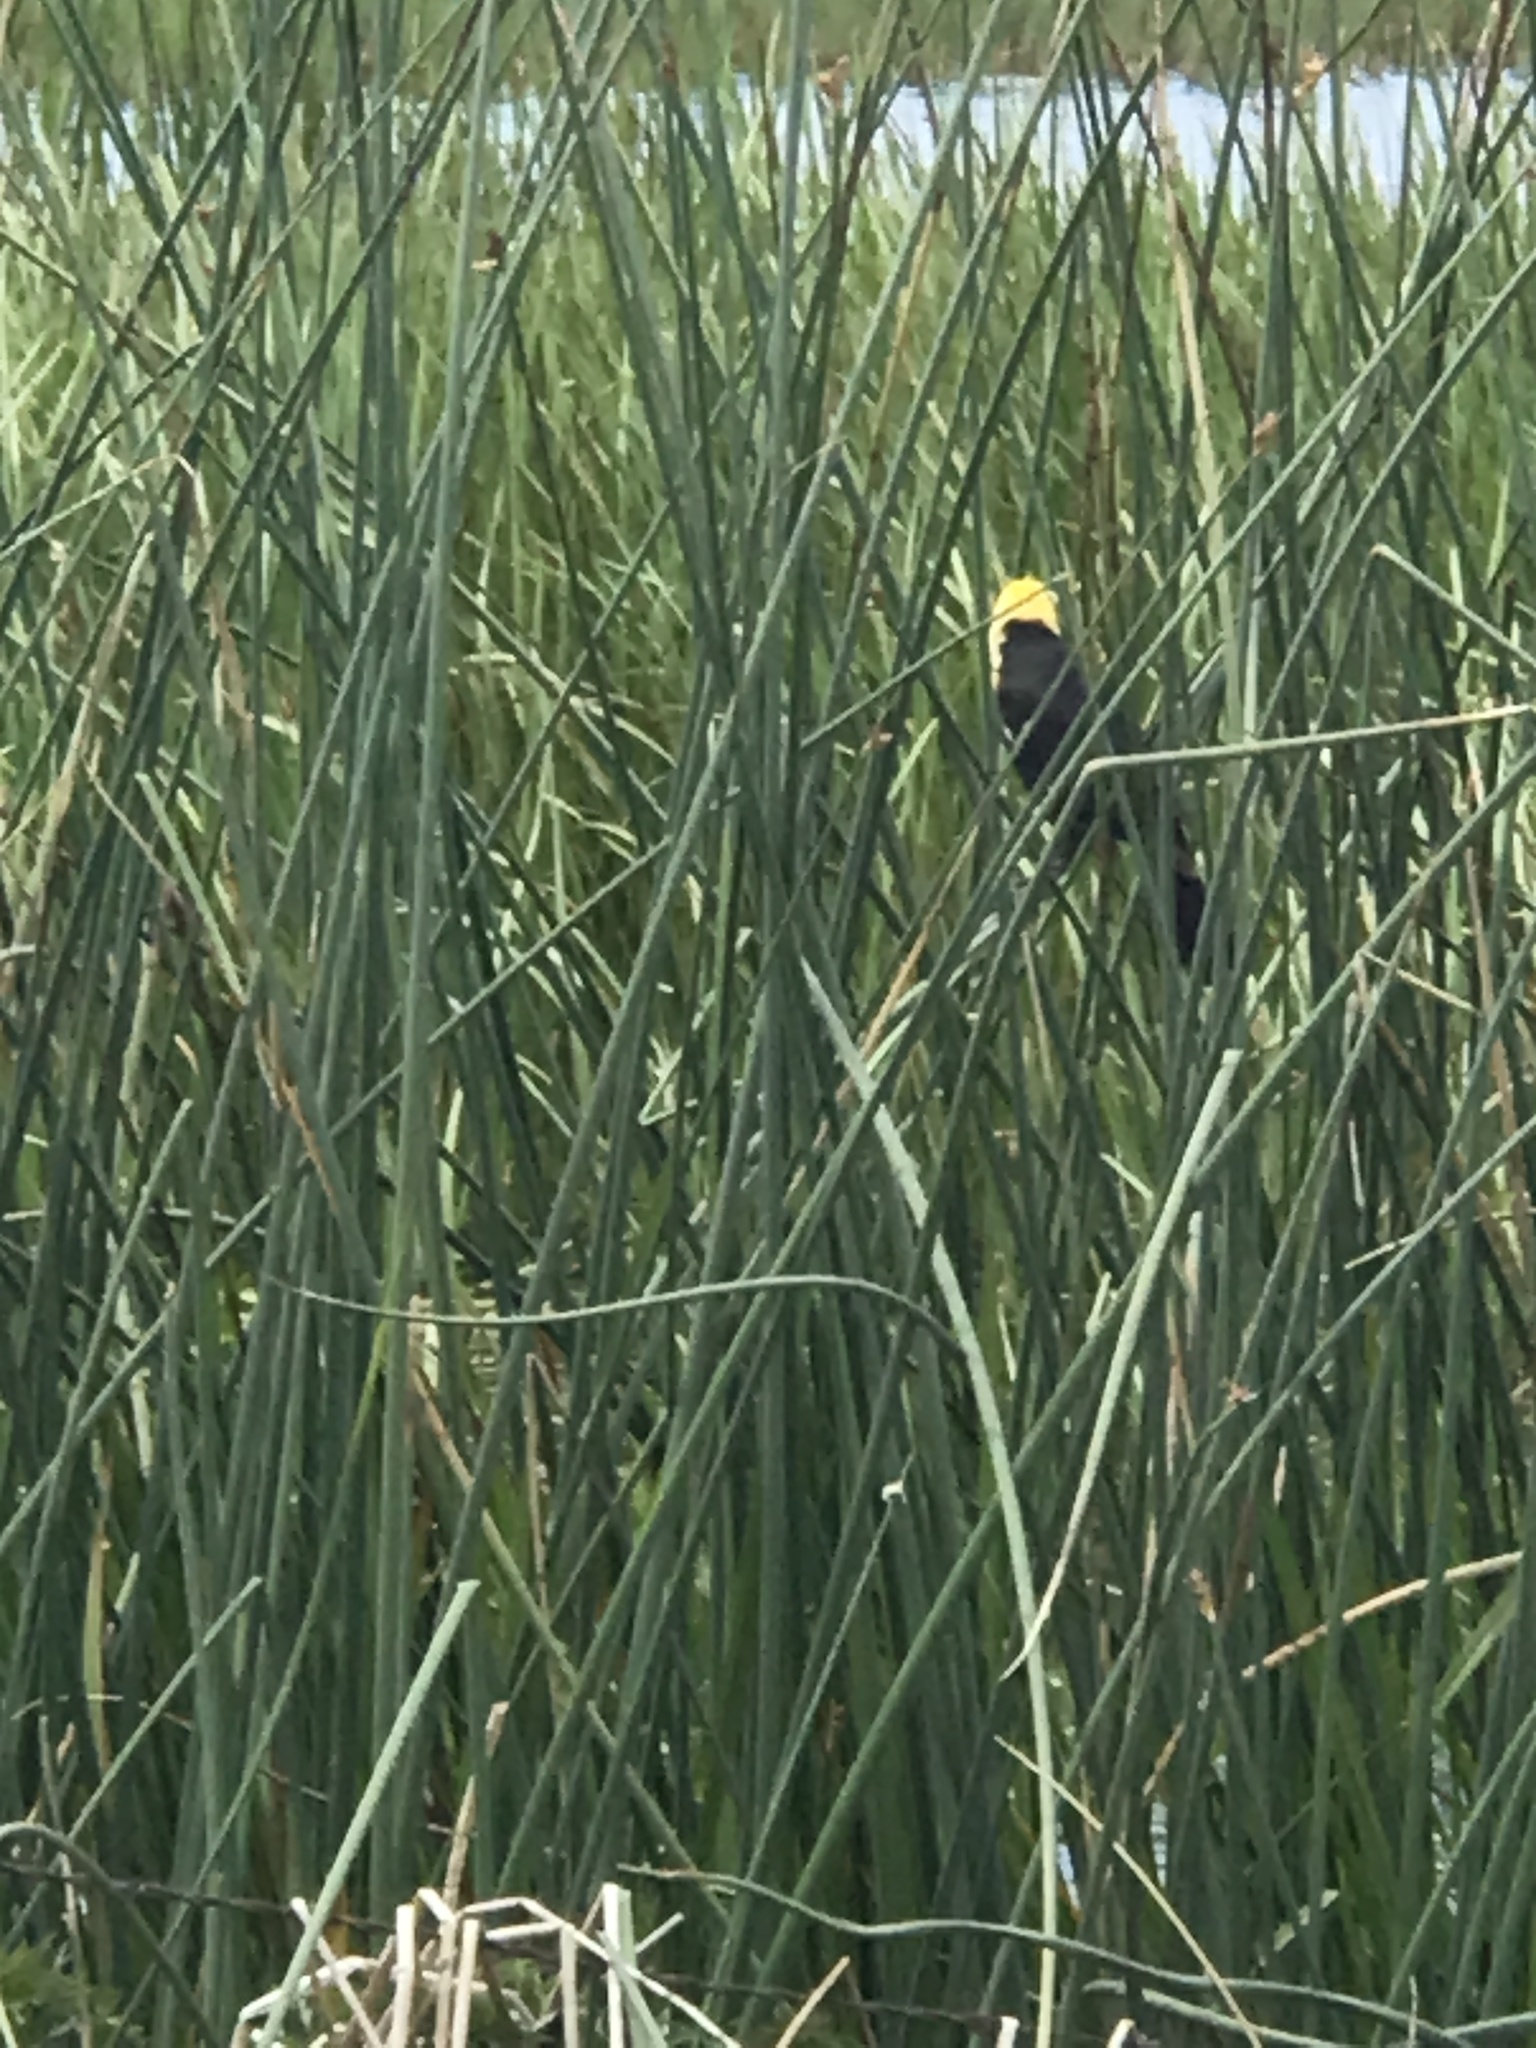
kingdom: Animalia
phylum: Chordata
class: Aves
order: Passeriformes
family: Icteridae
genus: Xanthocephalus
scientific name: Xanthocephalus xanthocephalus
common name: Yellow-headed blackbird
